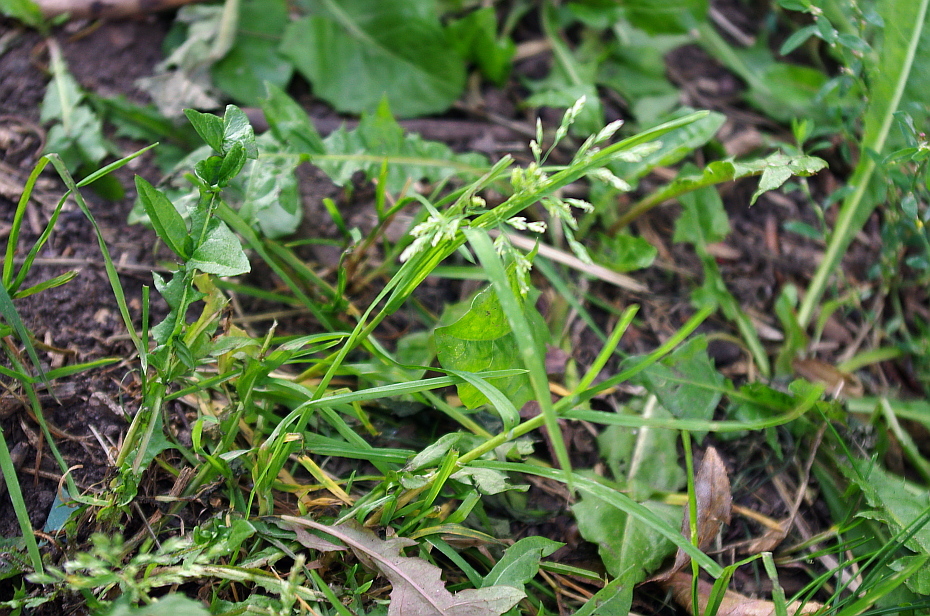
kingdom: Plantae
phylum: Tracheophyta
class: Liliopsida
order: Poales
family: Poaceae
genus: Poa
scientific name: Poa annua
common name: Annual bluegrass
